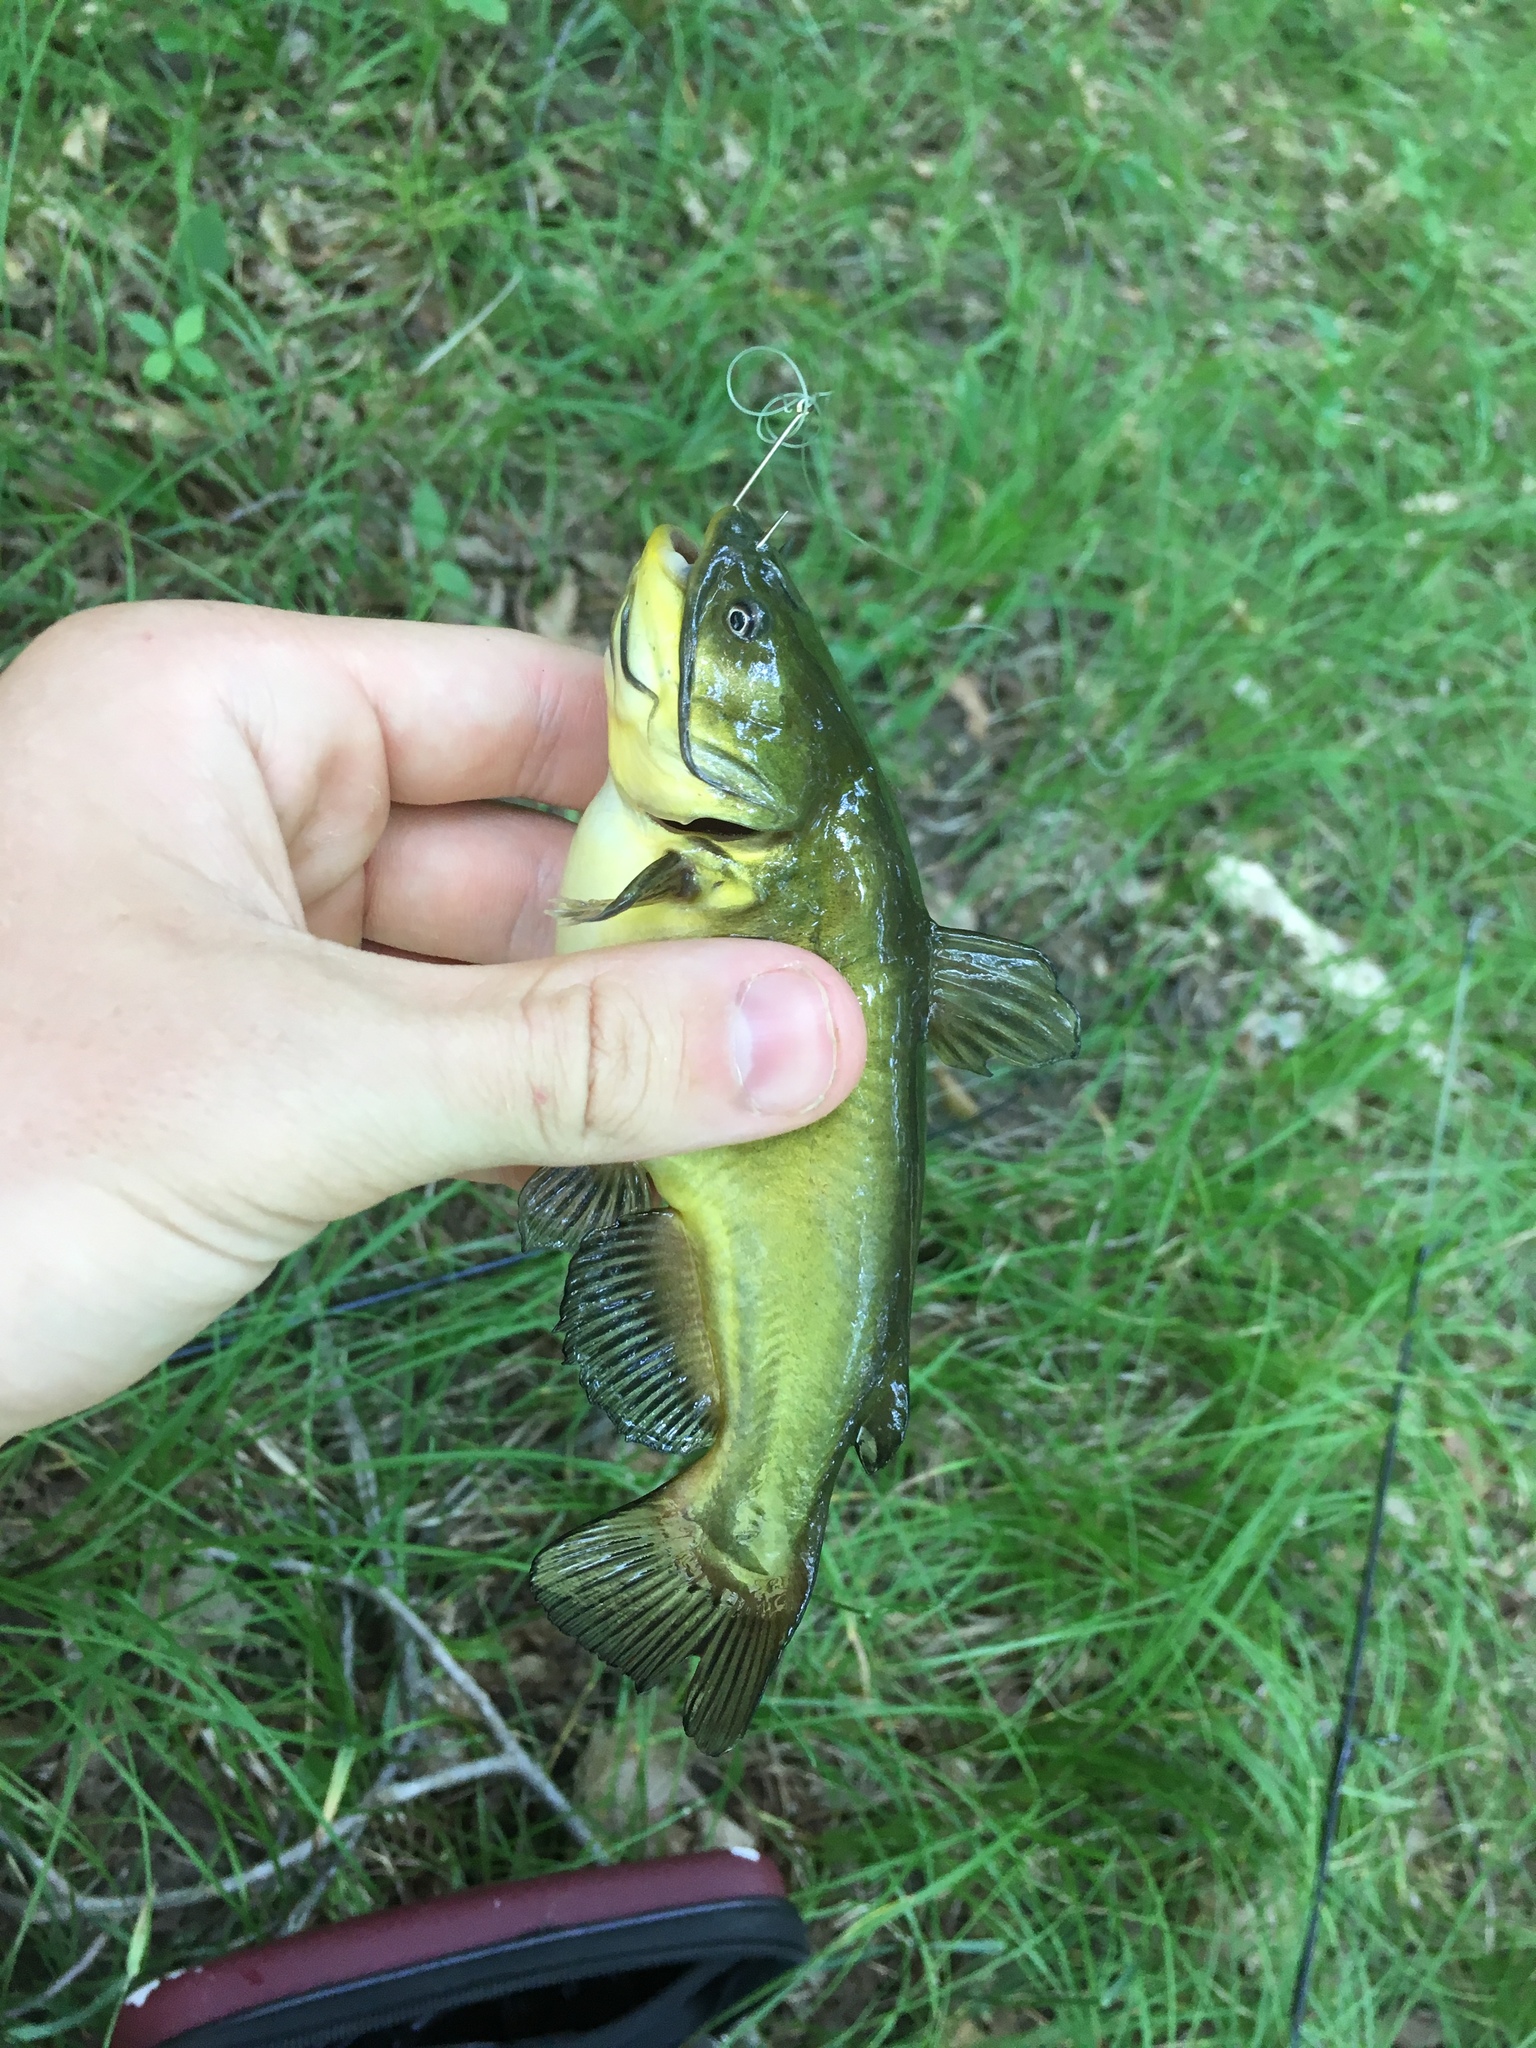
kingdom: Animalia
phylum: Chordata
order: Siluriformes
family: Ictaluridae
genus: Ameiurus
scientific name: Ameiurus melas
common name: Black bullhead
